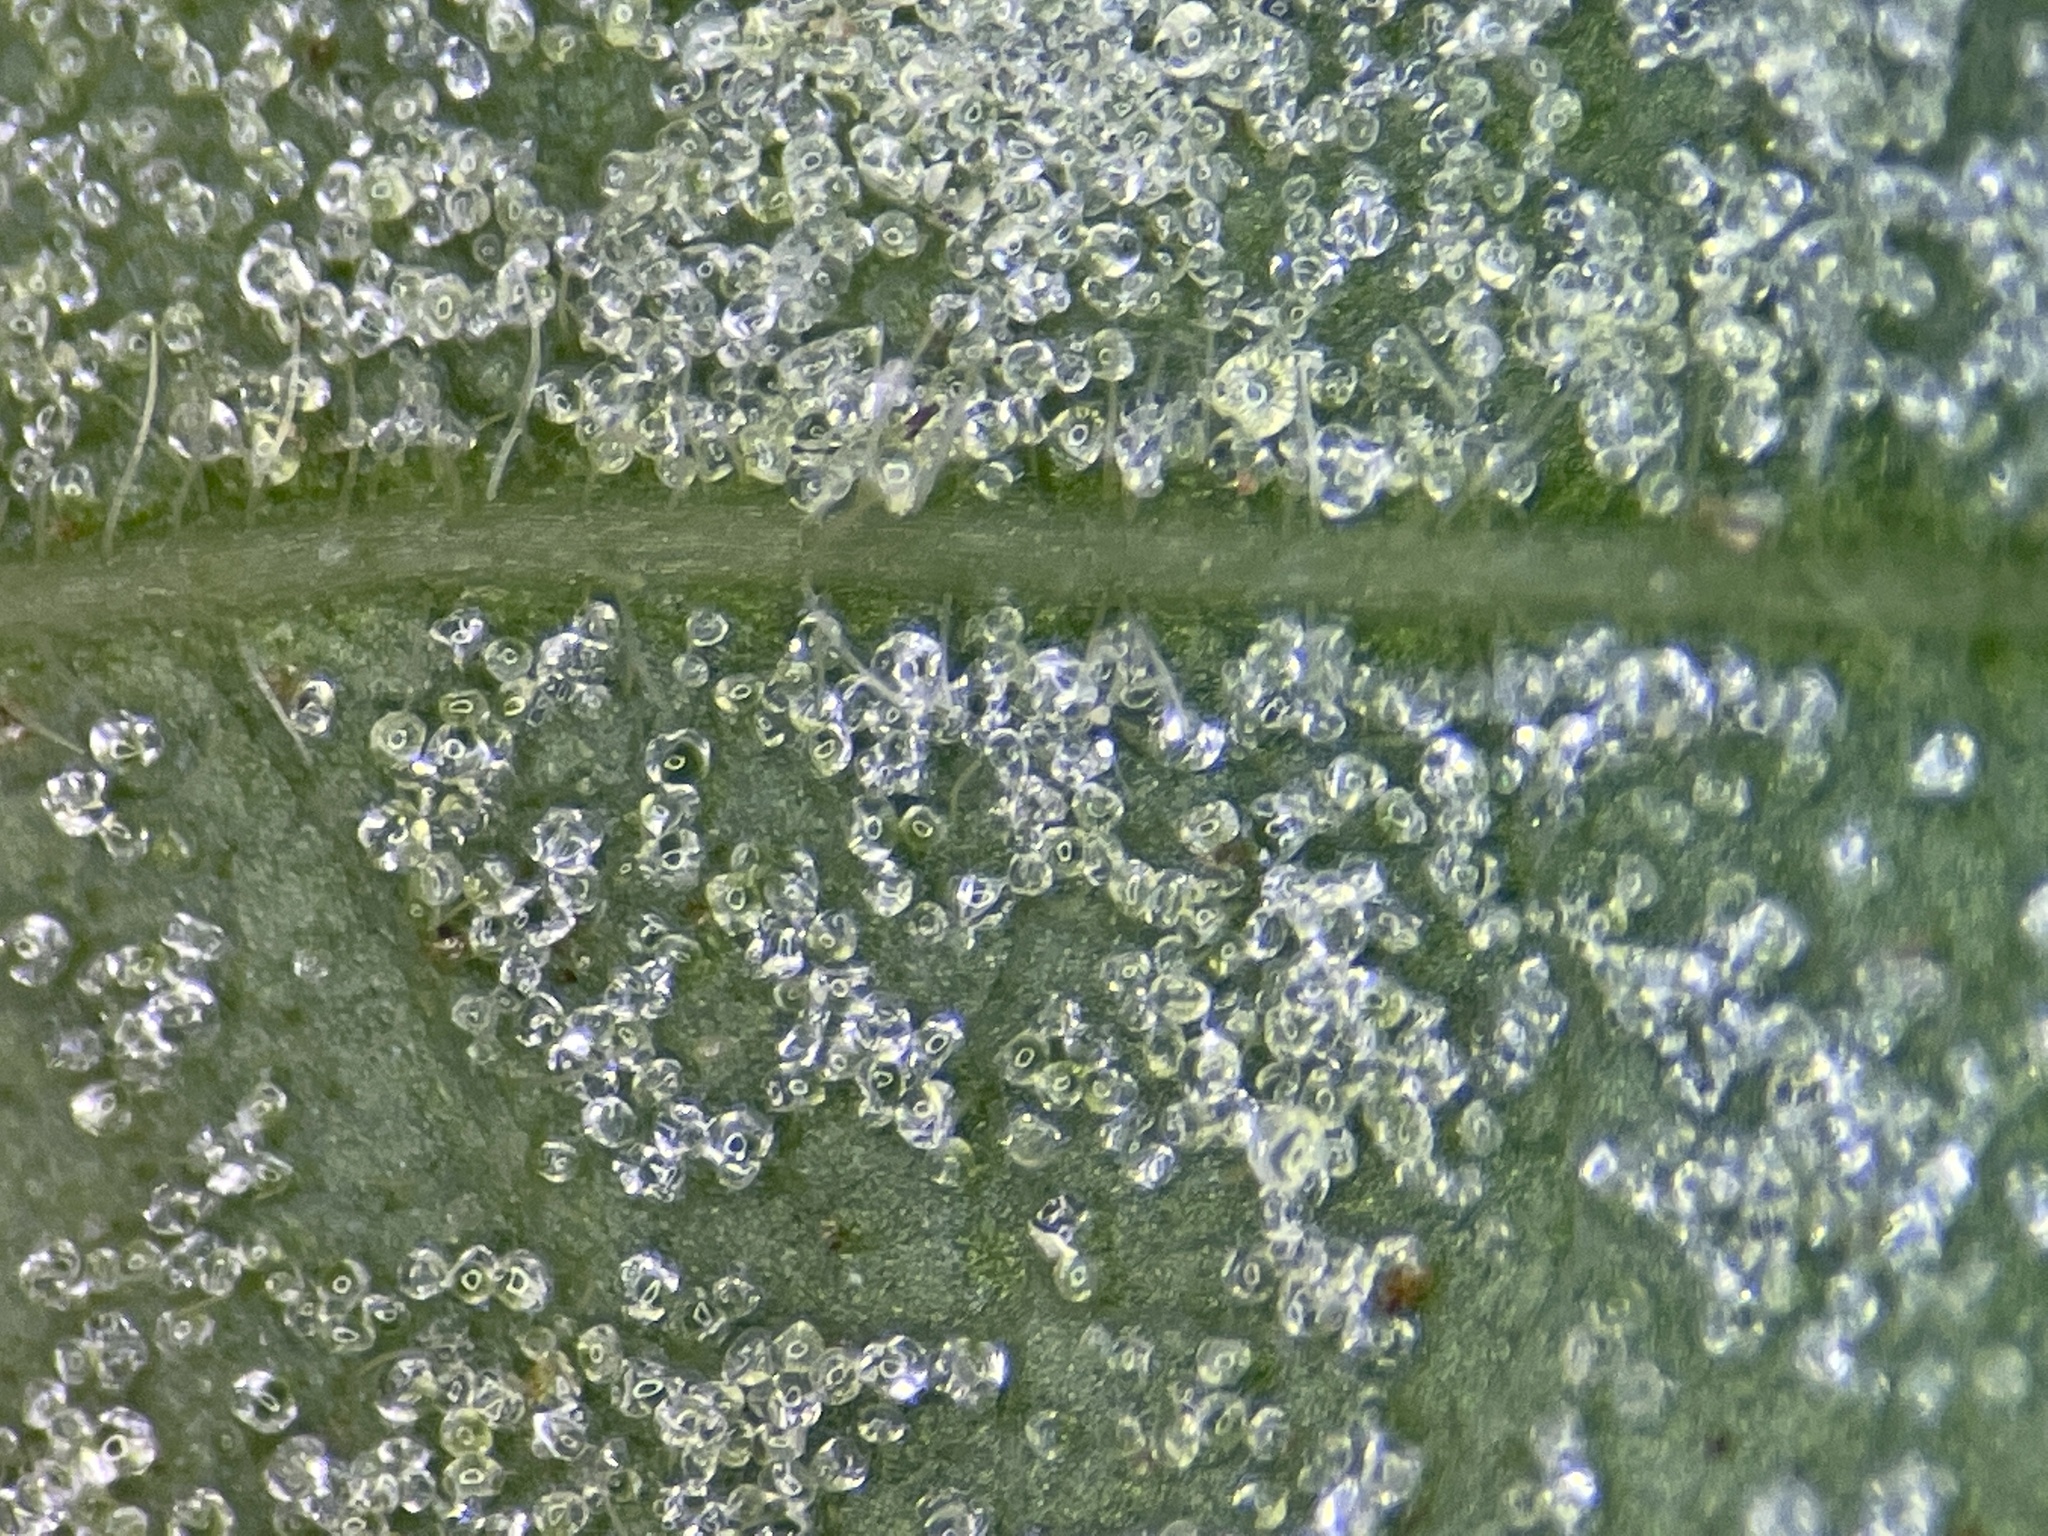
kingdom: Animalia
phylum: Arthropoda
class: Arachnida
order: Trombidiformes
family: Eriophyidae
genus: Aceria
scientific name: Aceria
